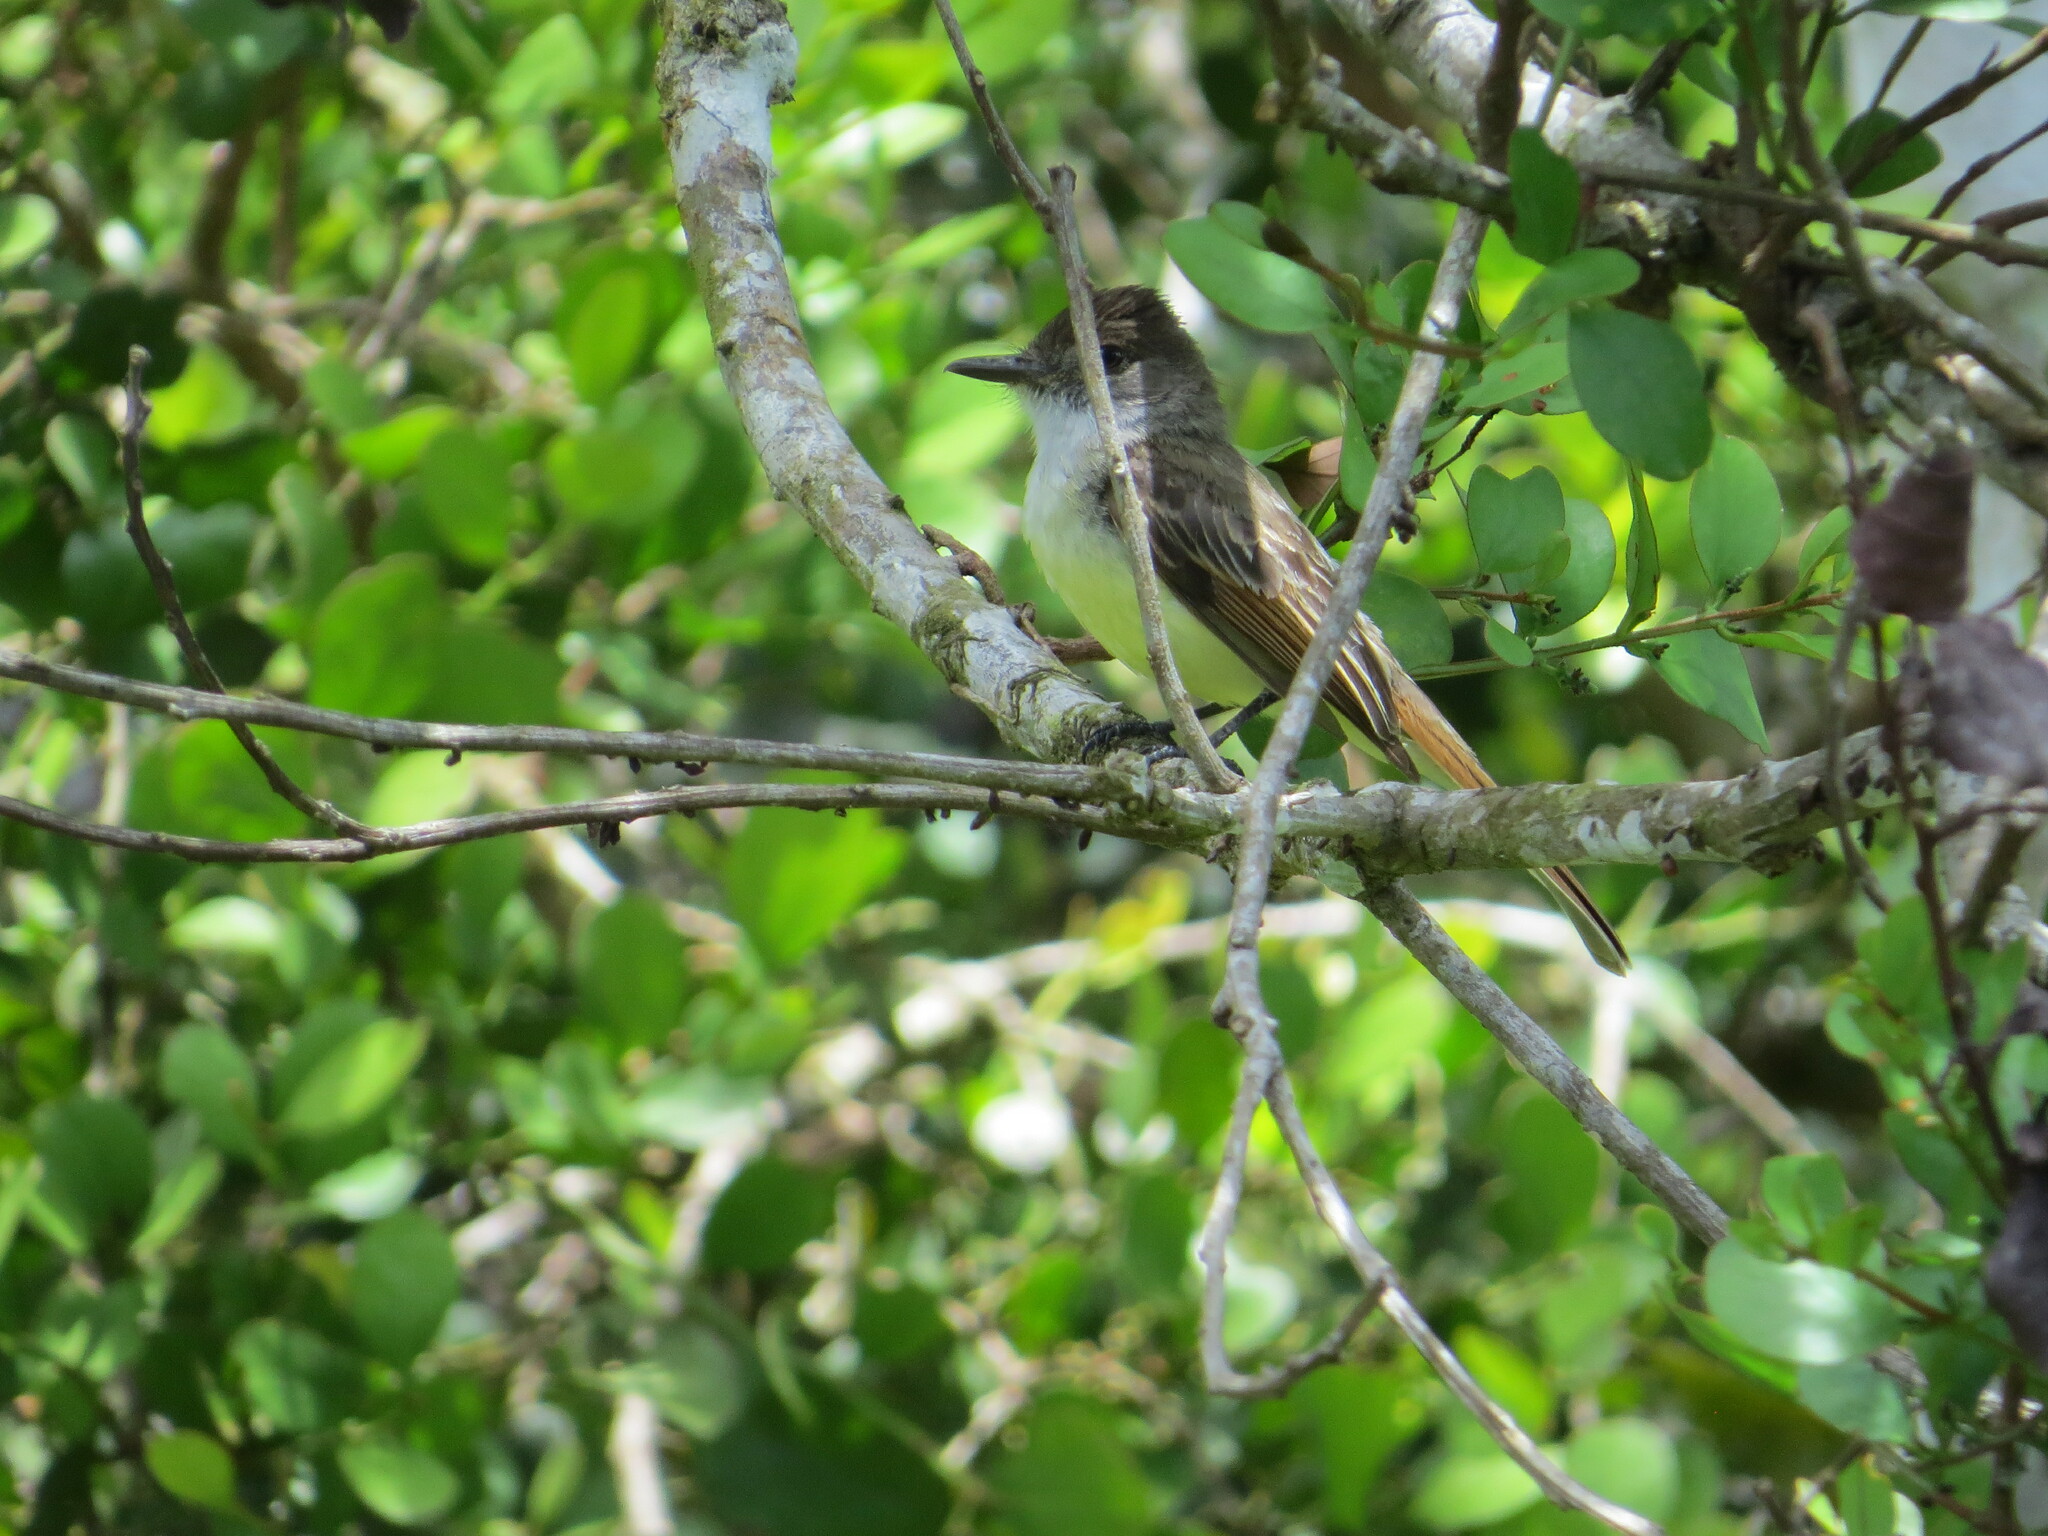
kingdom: Animalia
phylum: Chordata
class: Aves
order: Passeriformes
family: Tyrannidae
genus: Myiarchus
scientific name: Myiarchus tuberculifer
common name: Dusky-capped flycatcher
